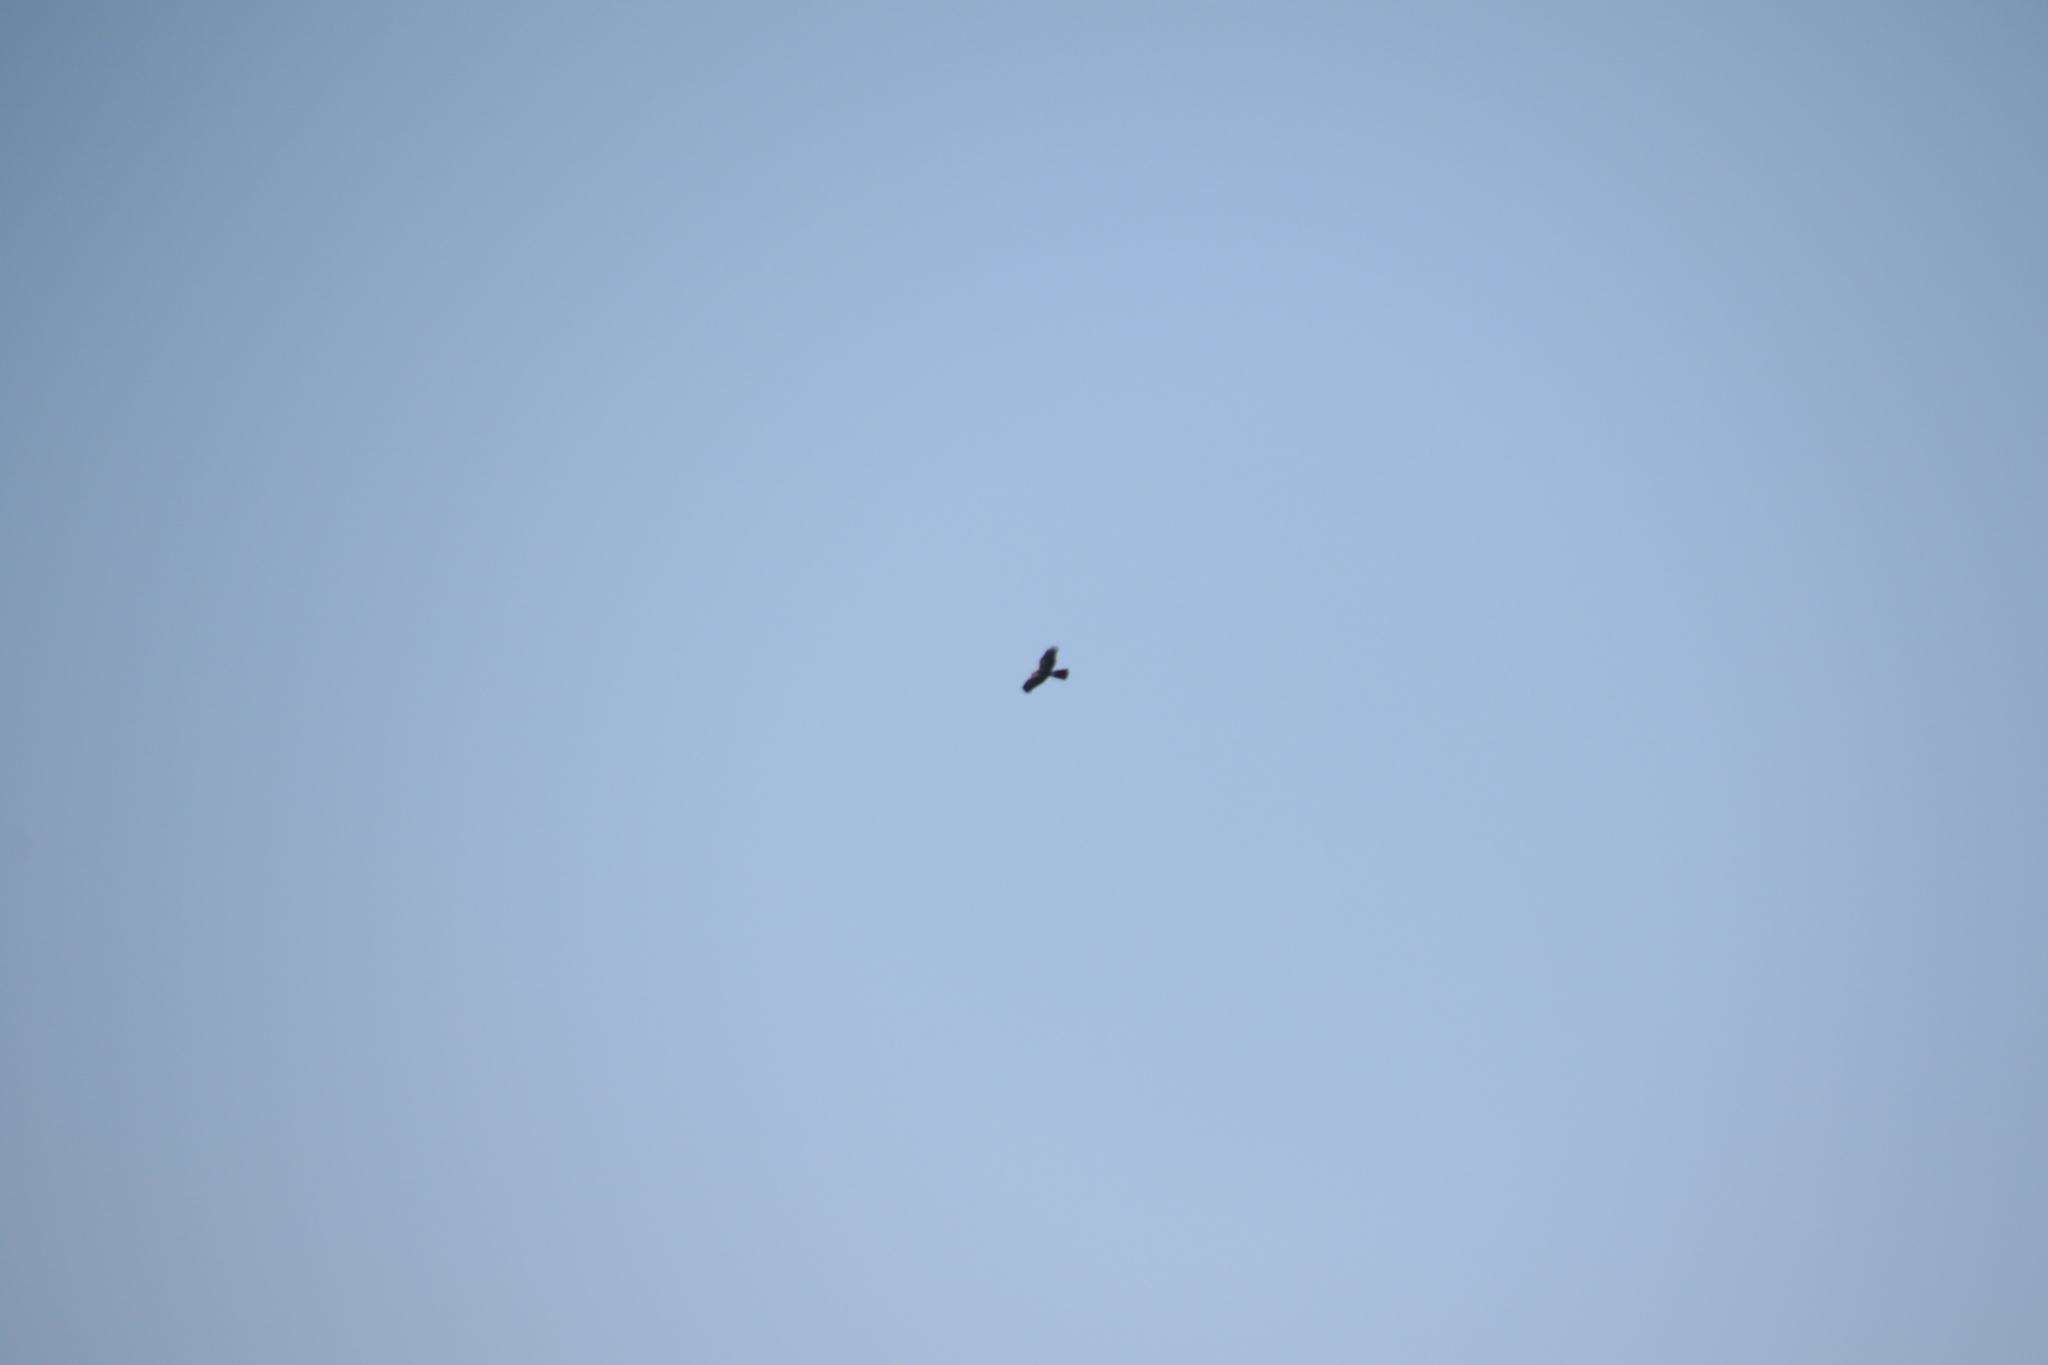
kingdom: Animalia
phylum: Chordata
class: Aves
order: Accipitriformes
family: Accipitridae
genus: Circus
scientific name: Circus cyaneus
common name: Hen harrier
